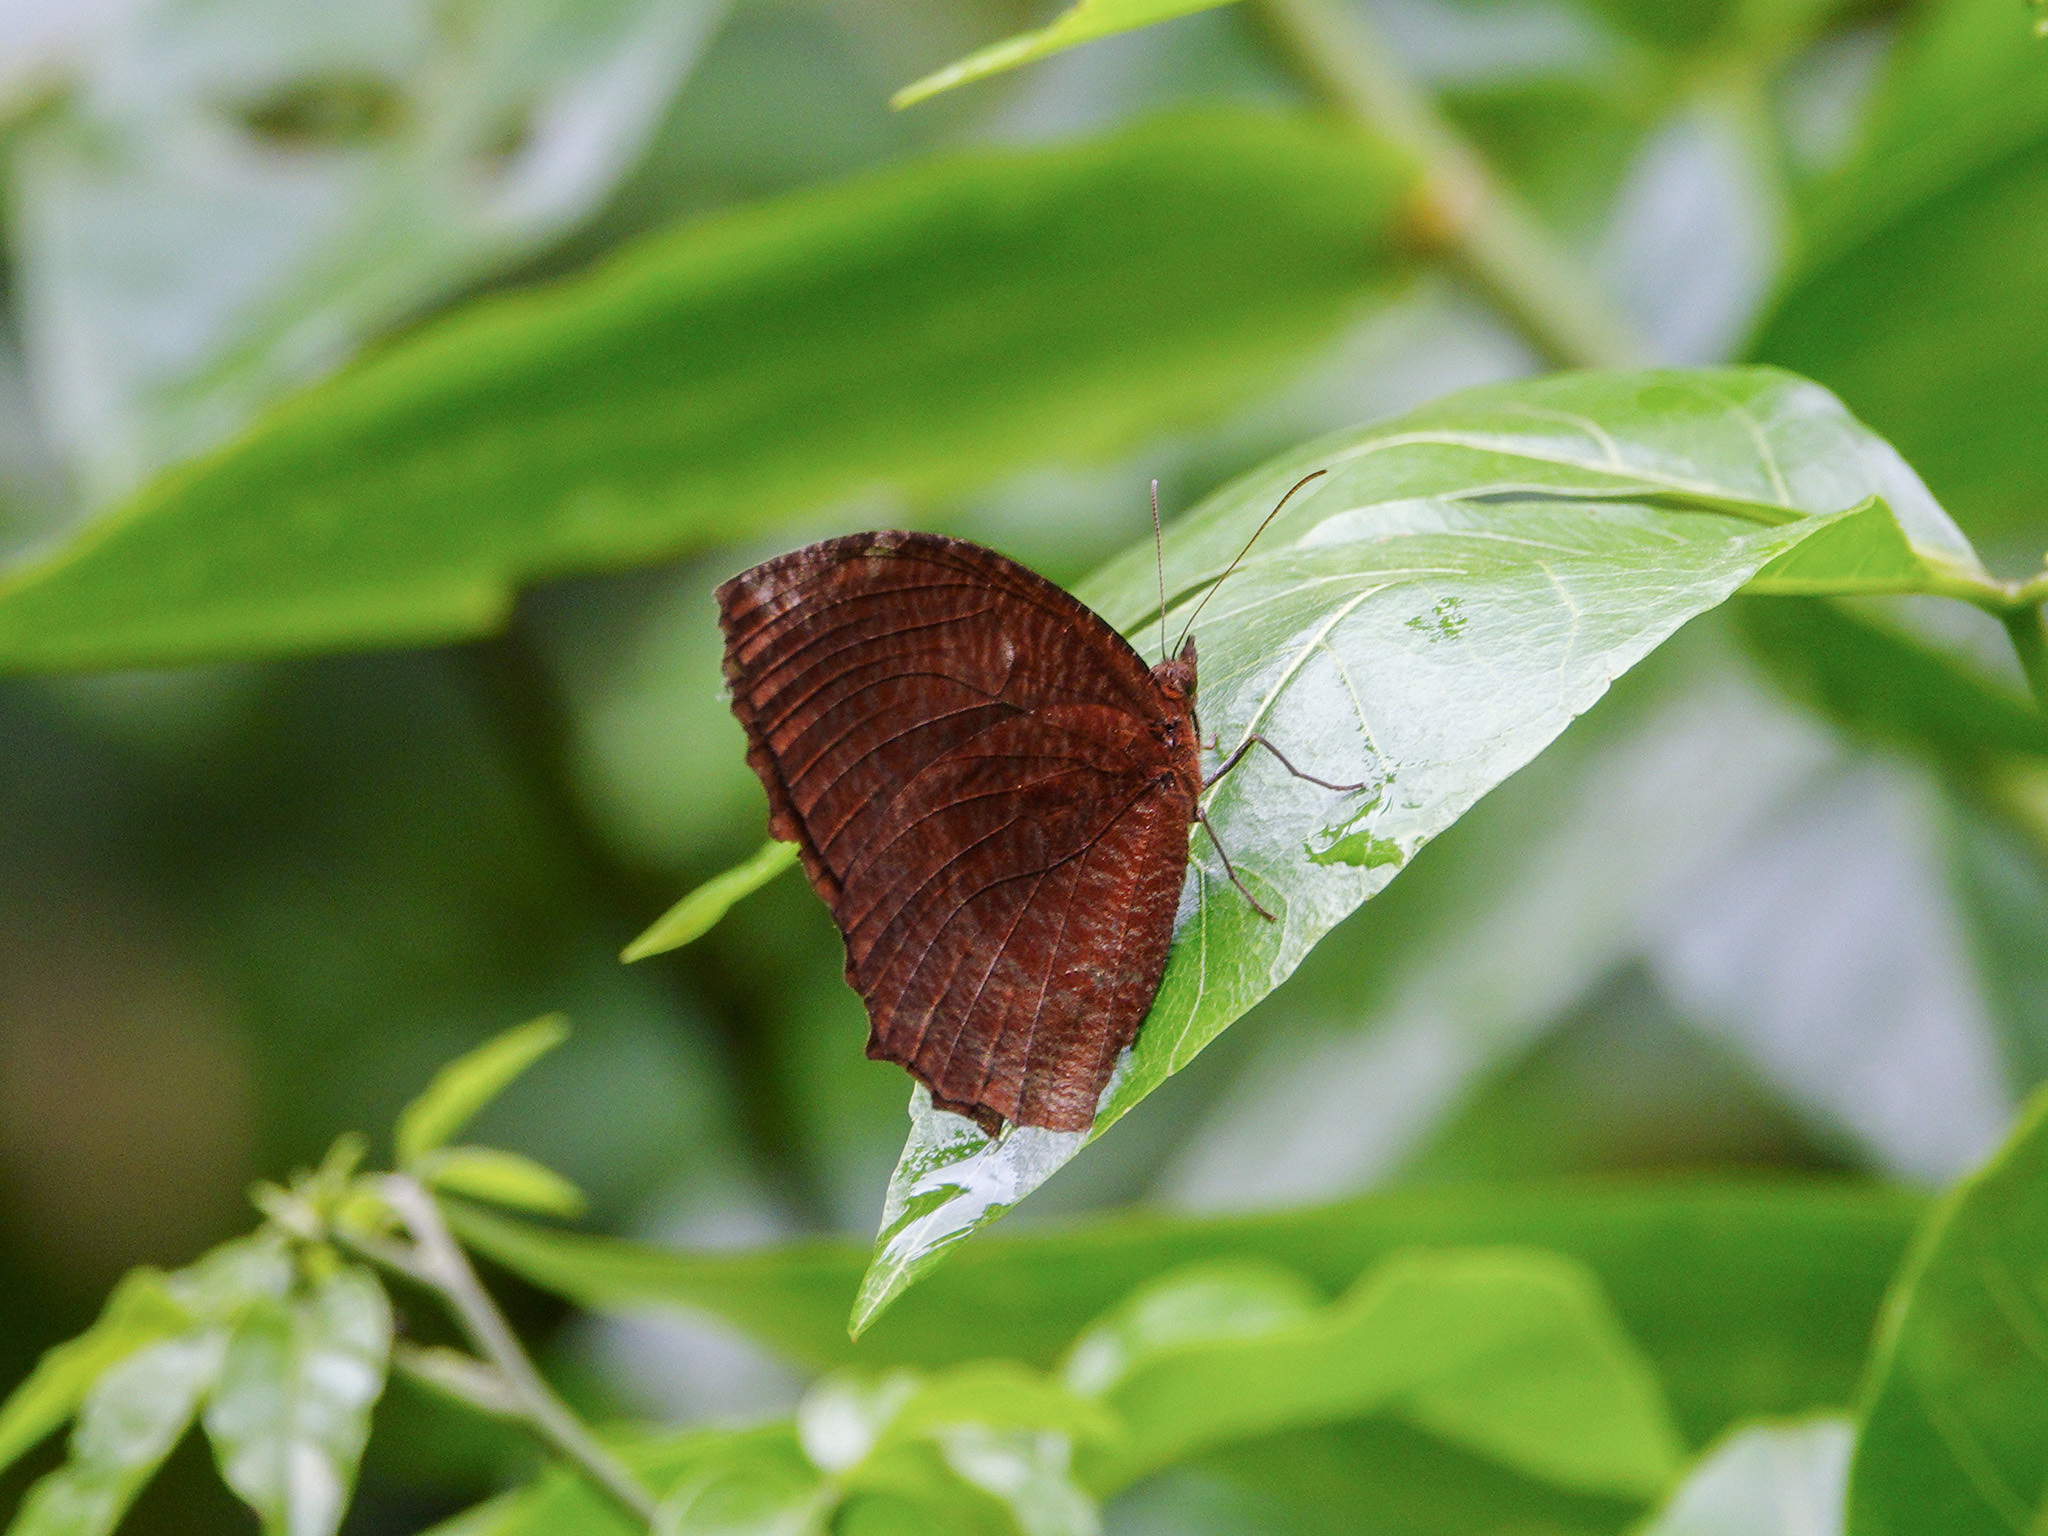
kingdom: Animalia
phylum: Arthropoda
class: Insecta
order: Lepidoptera
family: Nymphalidae
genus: Elymnias
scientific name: Elymnias hypermnestra
